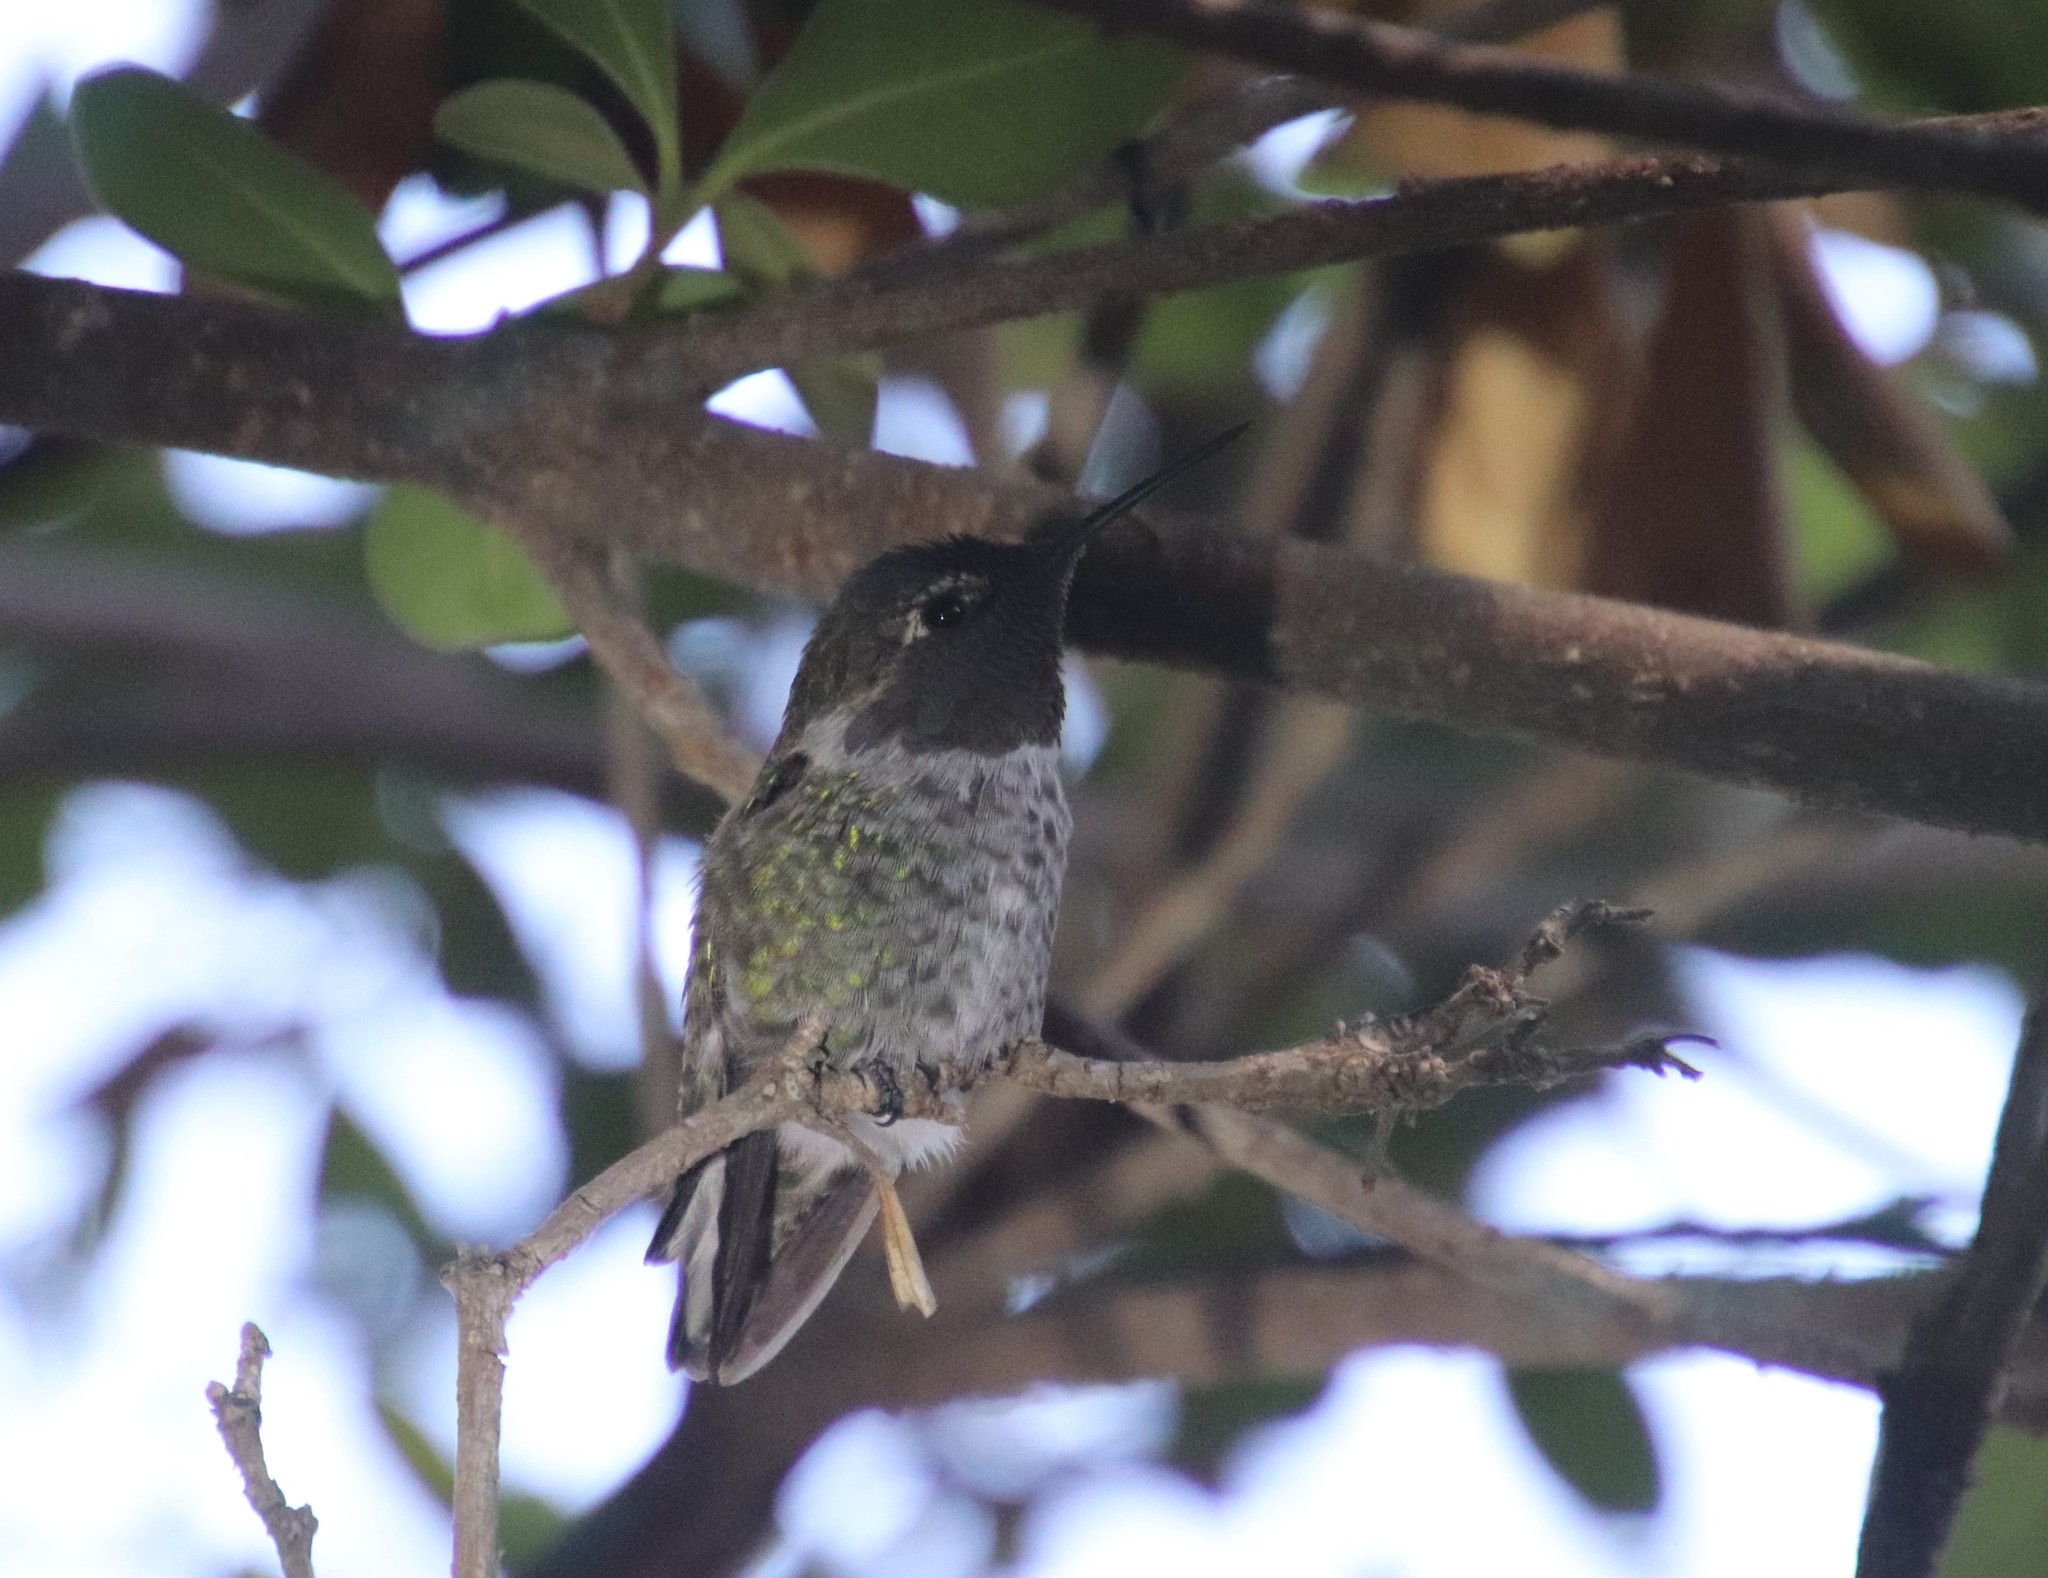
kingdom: Animalia
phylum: Chordata
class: Aves
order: Apodiformes
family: Trochilidae
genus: Calypte
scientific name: Calypte anna
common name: Anna's hummingbird
